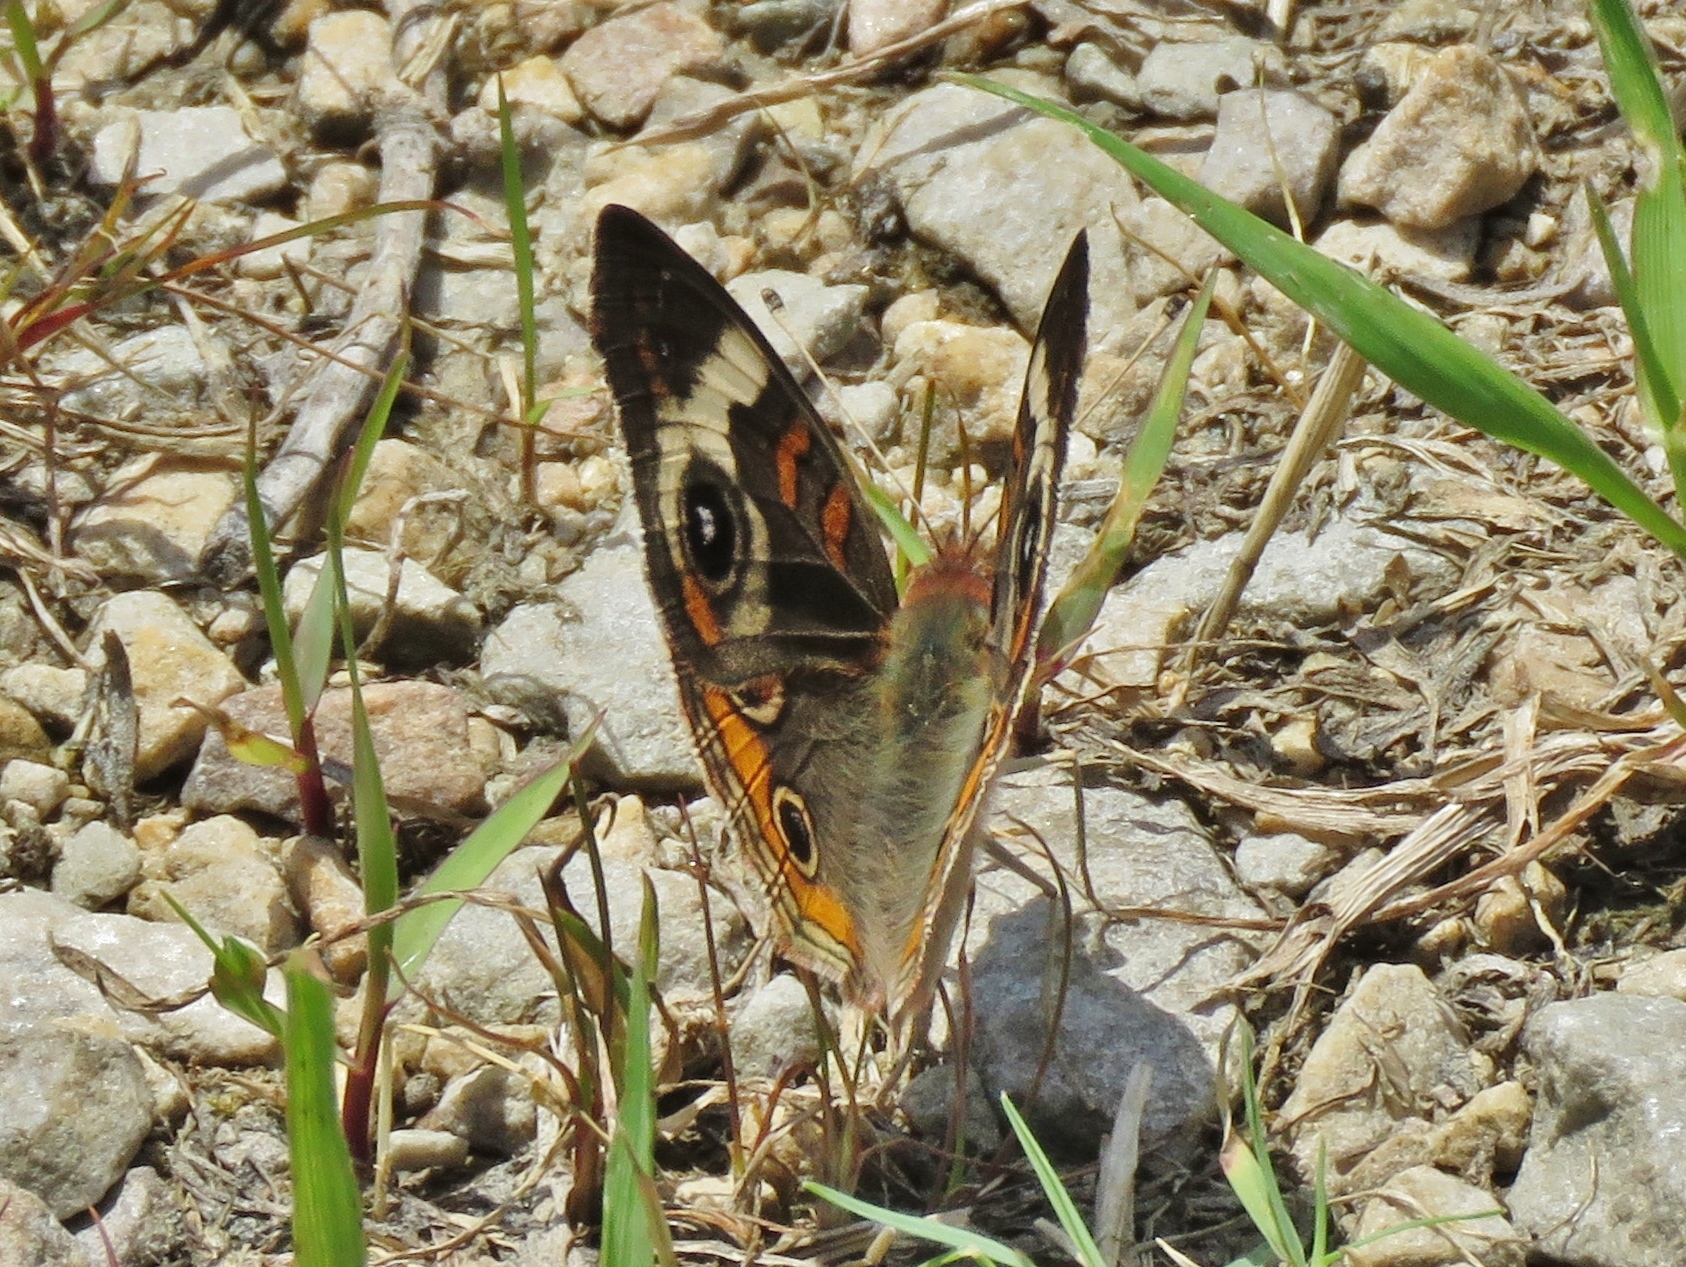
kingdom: Animalia
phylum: Arthropoda
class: Insecta
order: Lepidoptera
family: Nymphalidae
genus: Junonia
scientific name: Junonia coenia
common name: Common buckeye
